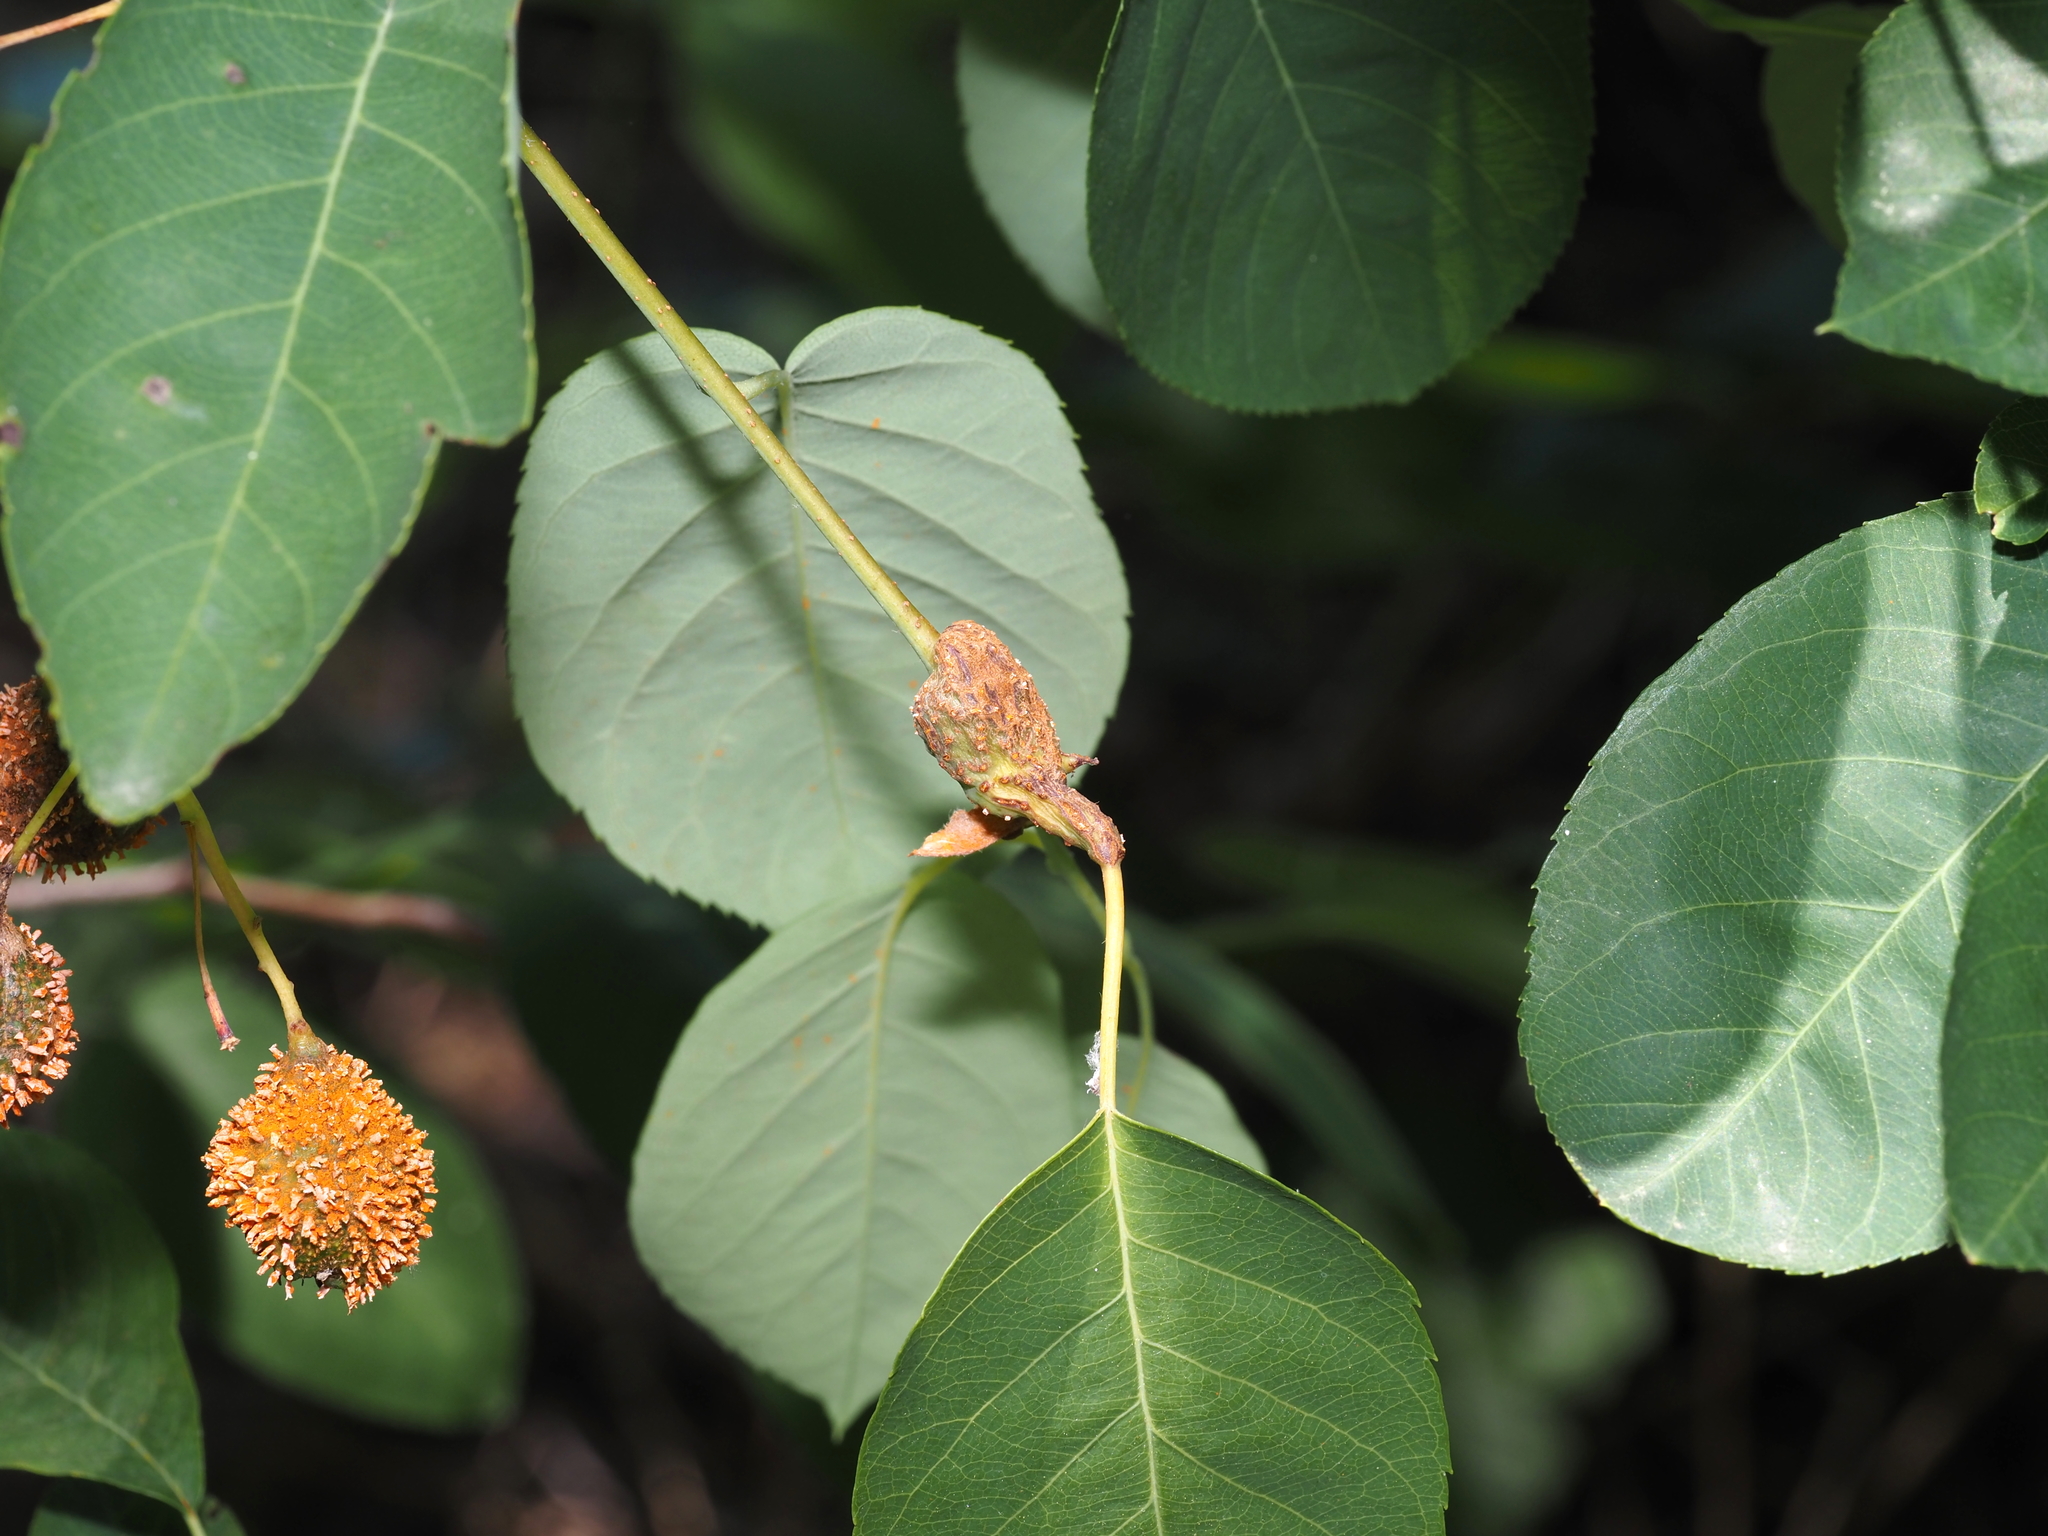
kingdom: Fungi
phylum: Basidiomycota
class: Pucciniomycetes
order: Pucciniales
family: Gymnosporangiaceae
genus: Gymnosporangium
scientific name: Gymnosporangium clavipes
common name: Quince rust
